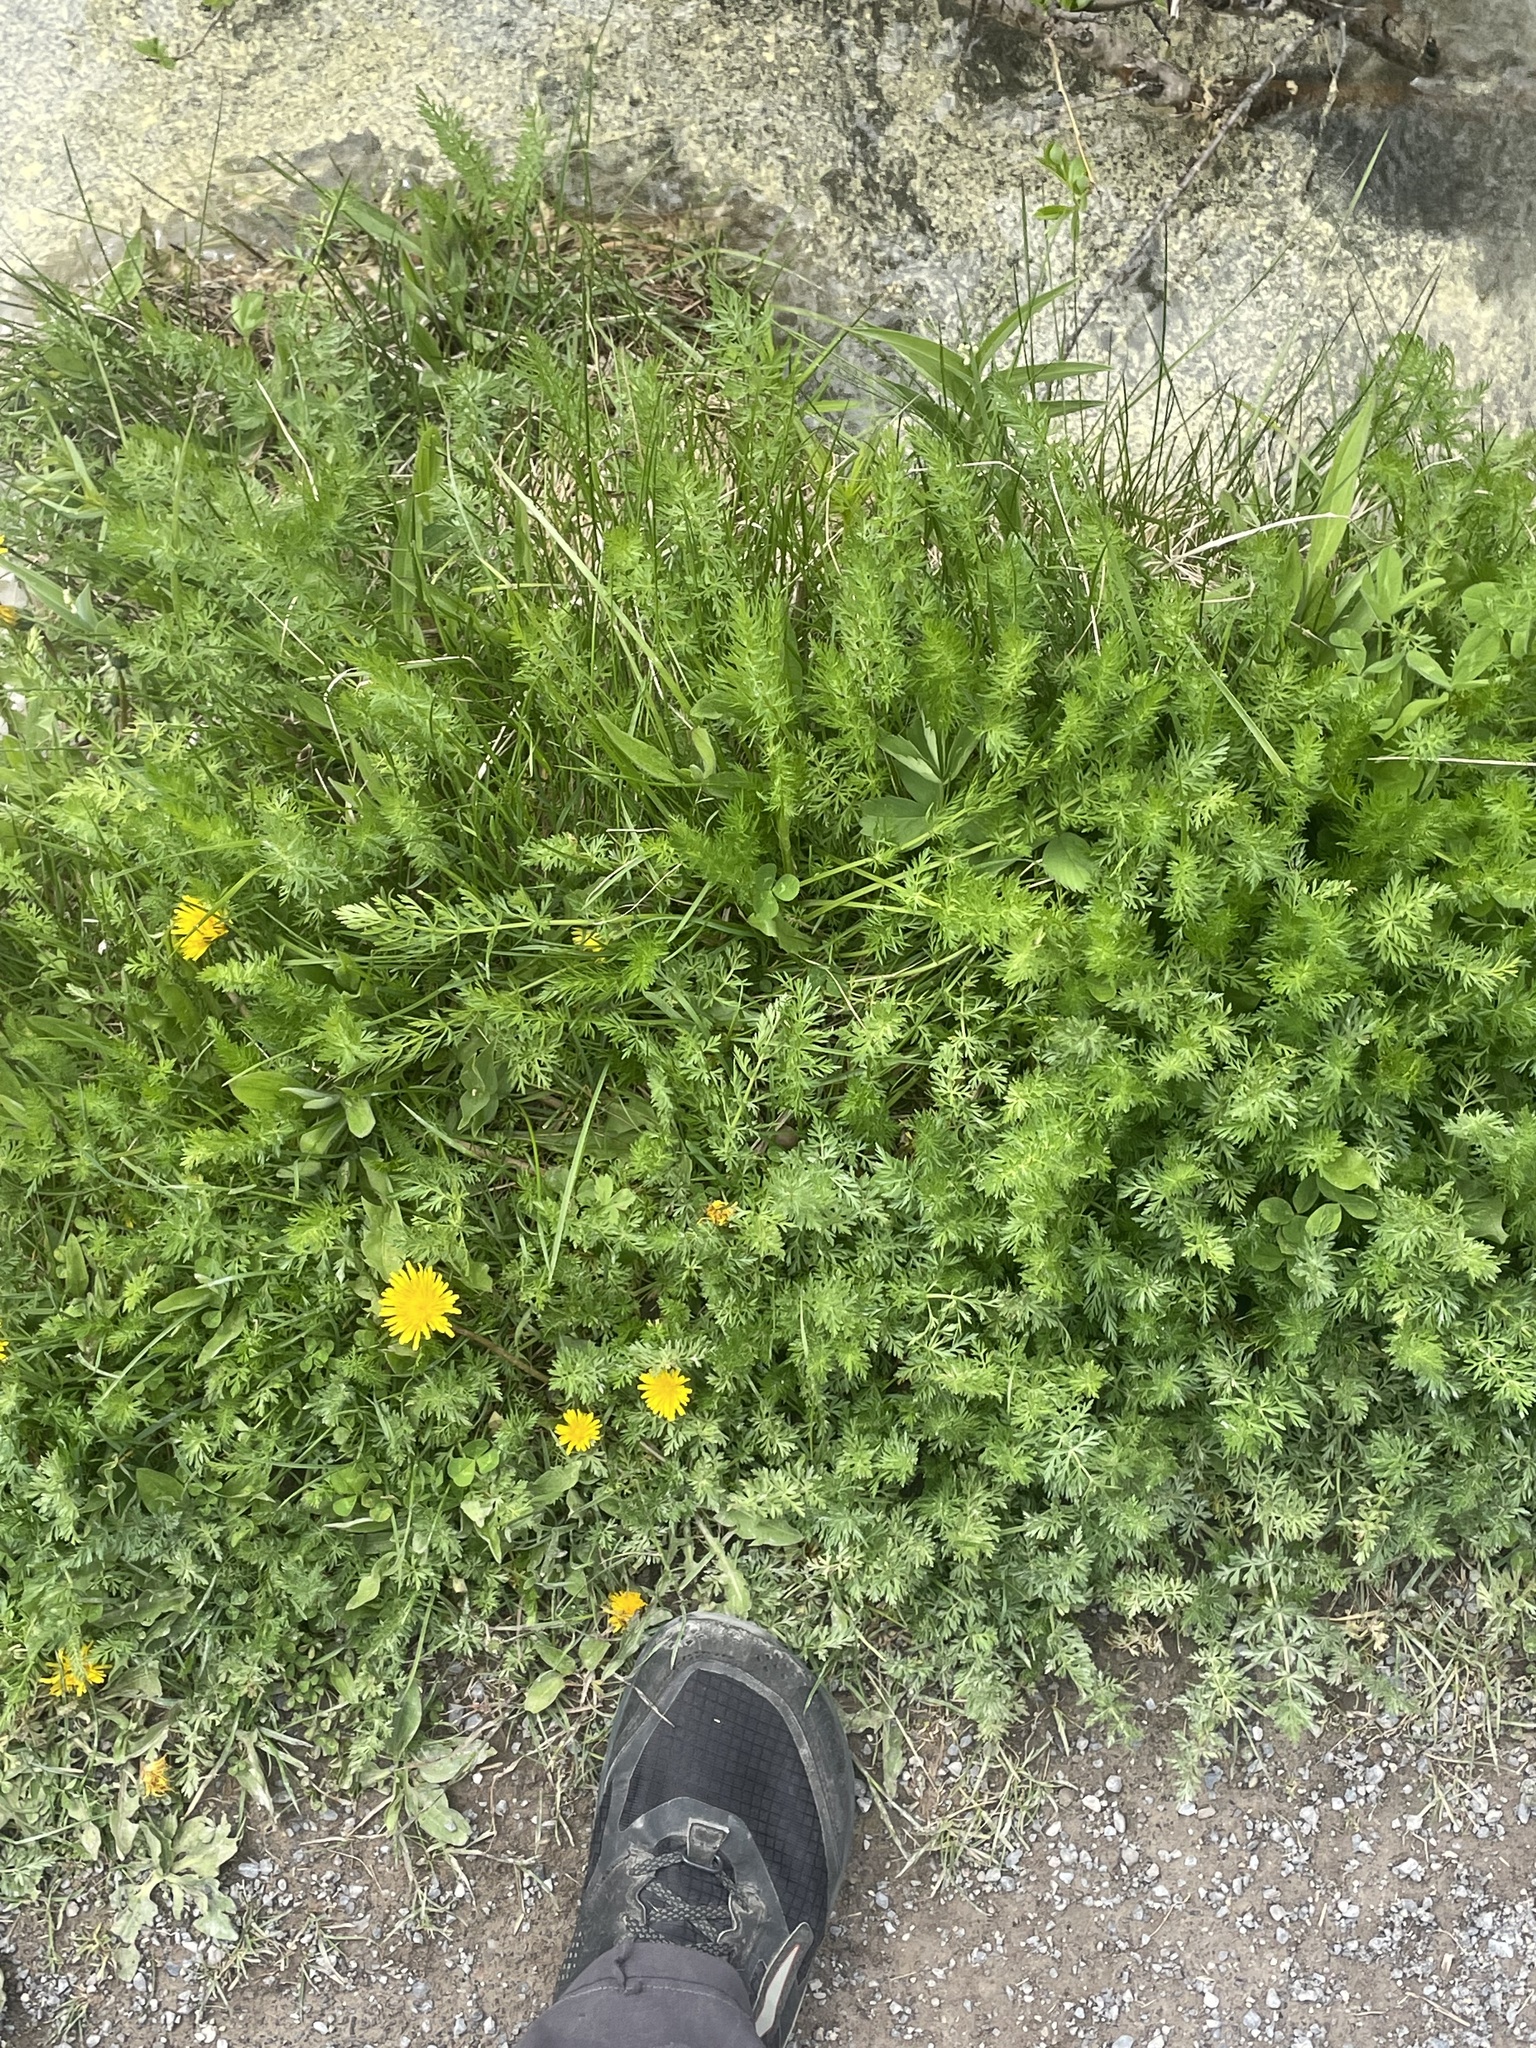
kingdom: Plantae
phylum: Tracheophyta
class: Magnoliopsida
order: Apiales
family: Apiaceae
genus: Carum
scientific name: Carum carvi
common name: Caraway
